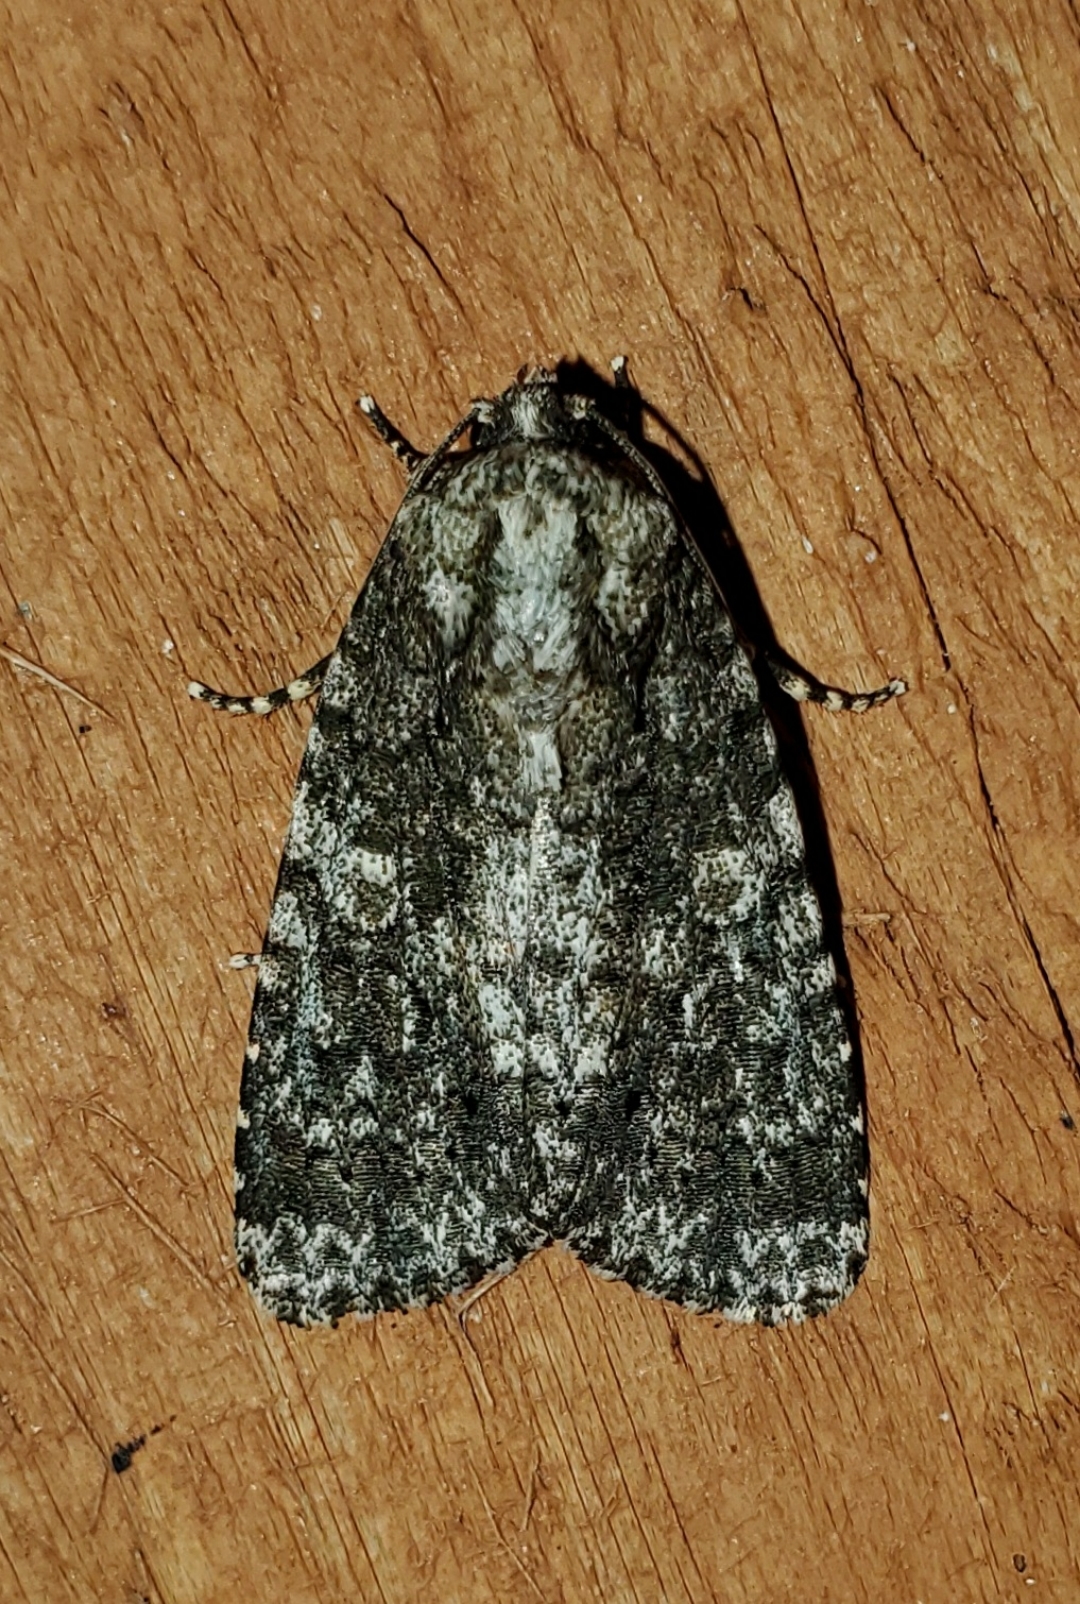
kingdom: Animalia
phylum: Arthropoda
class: Insecta
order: Lepidoptera
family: Noctuidae
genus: Acronicta
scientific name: Acronicta afflicta
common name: Afflicted dagger moth
